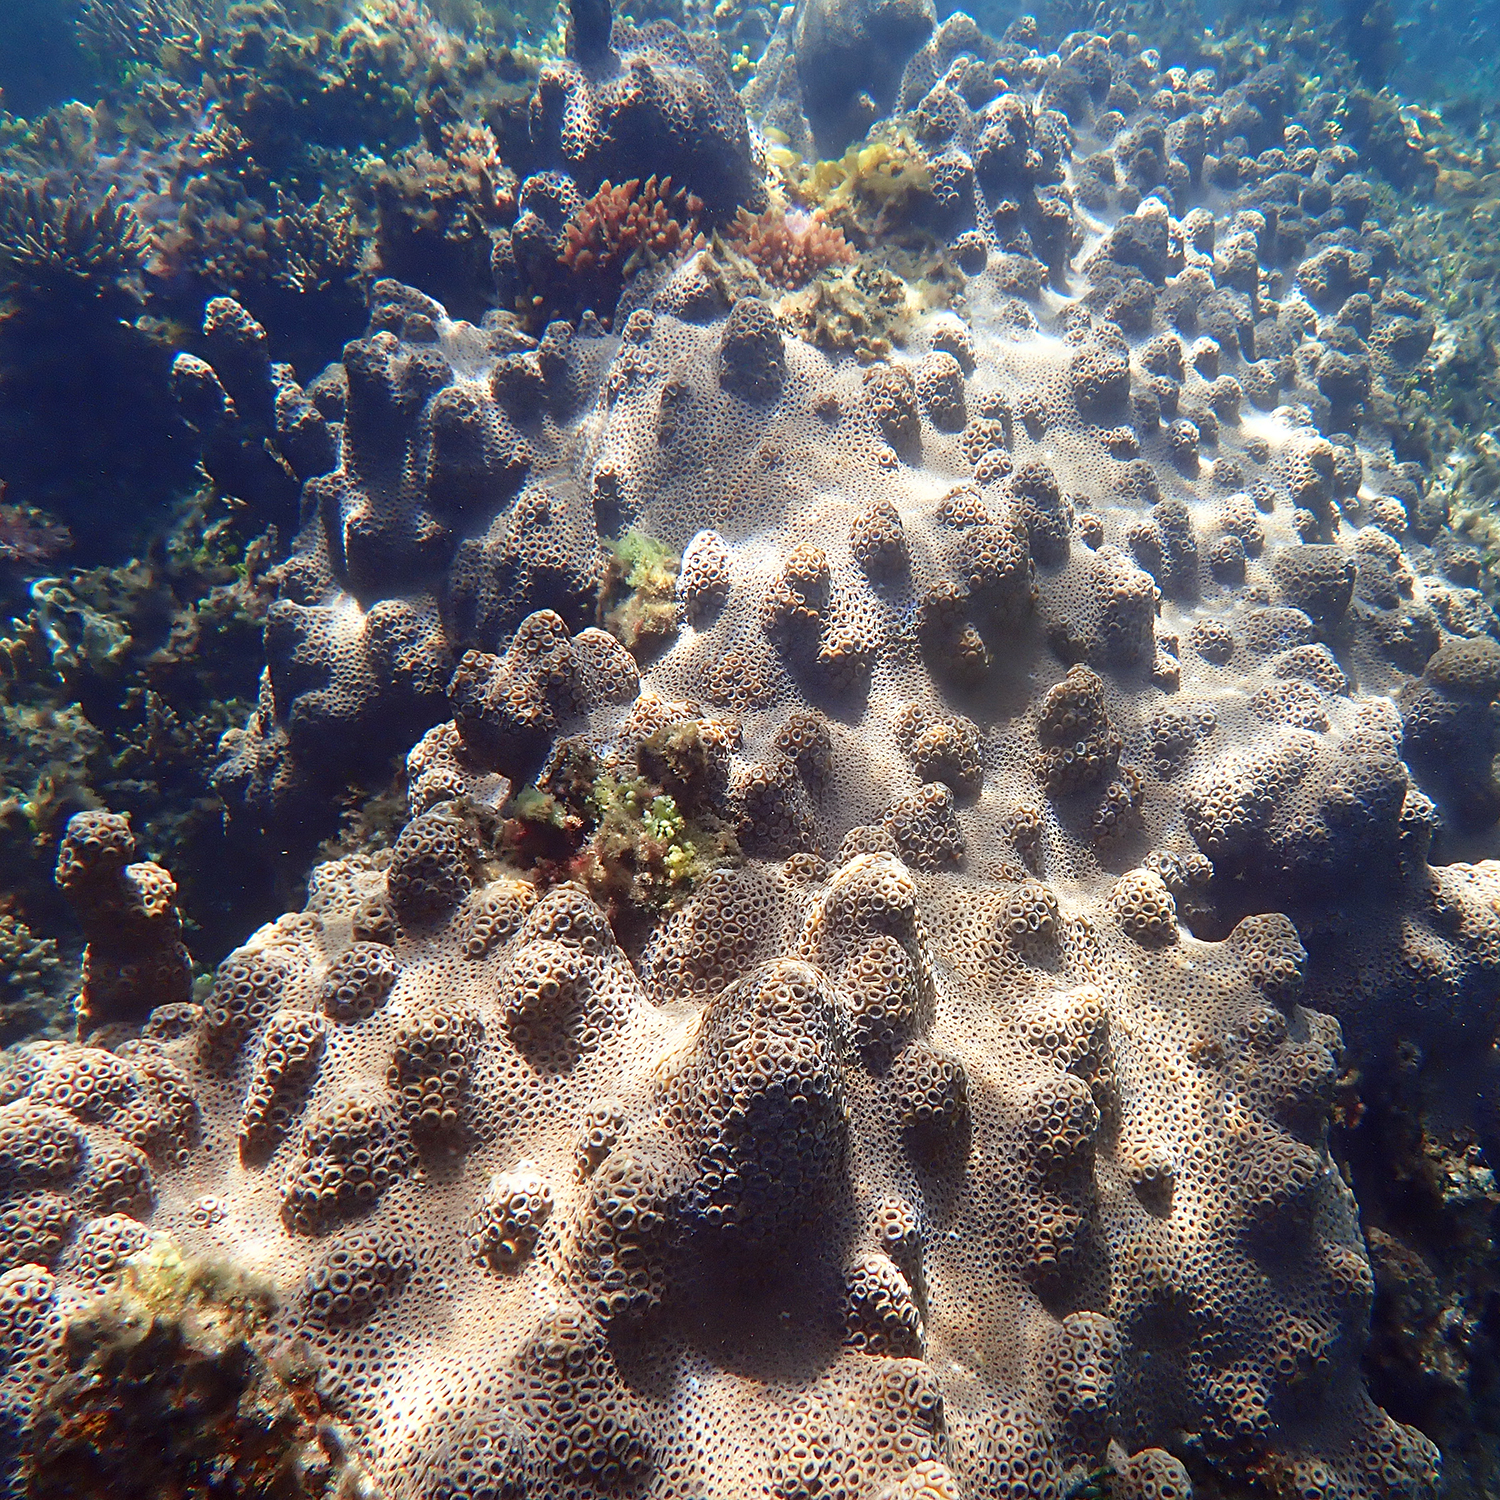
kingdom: Animalia
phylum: Cnidaria
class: Anthozoa
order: Scleractinia
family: Merulinidae
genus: Astrea
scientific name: Astrea curta
